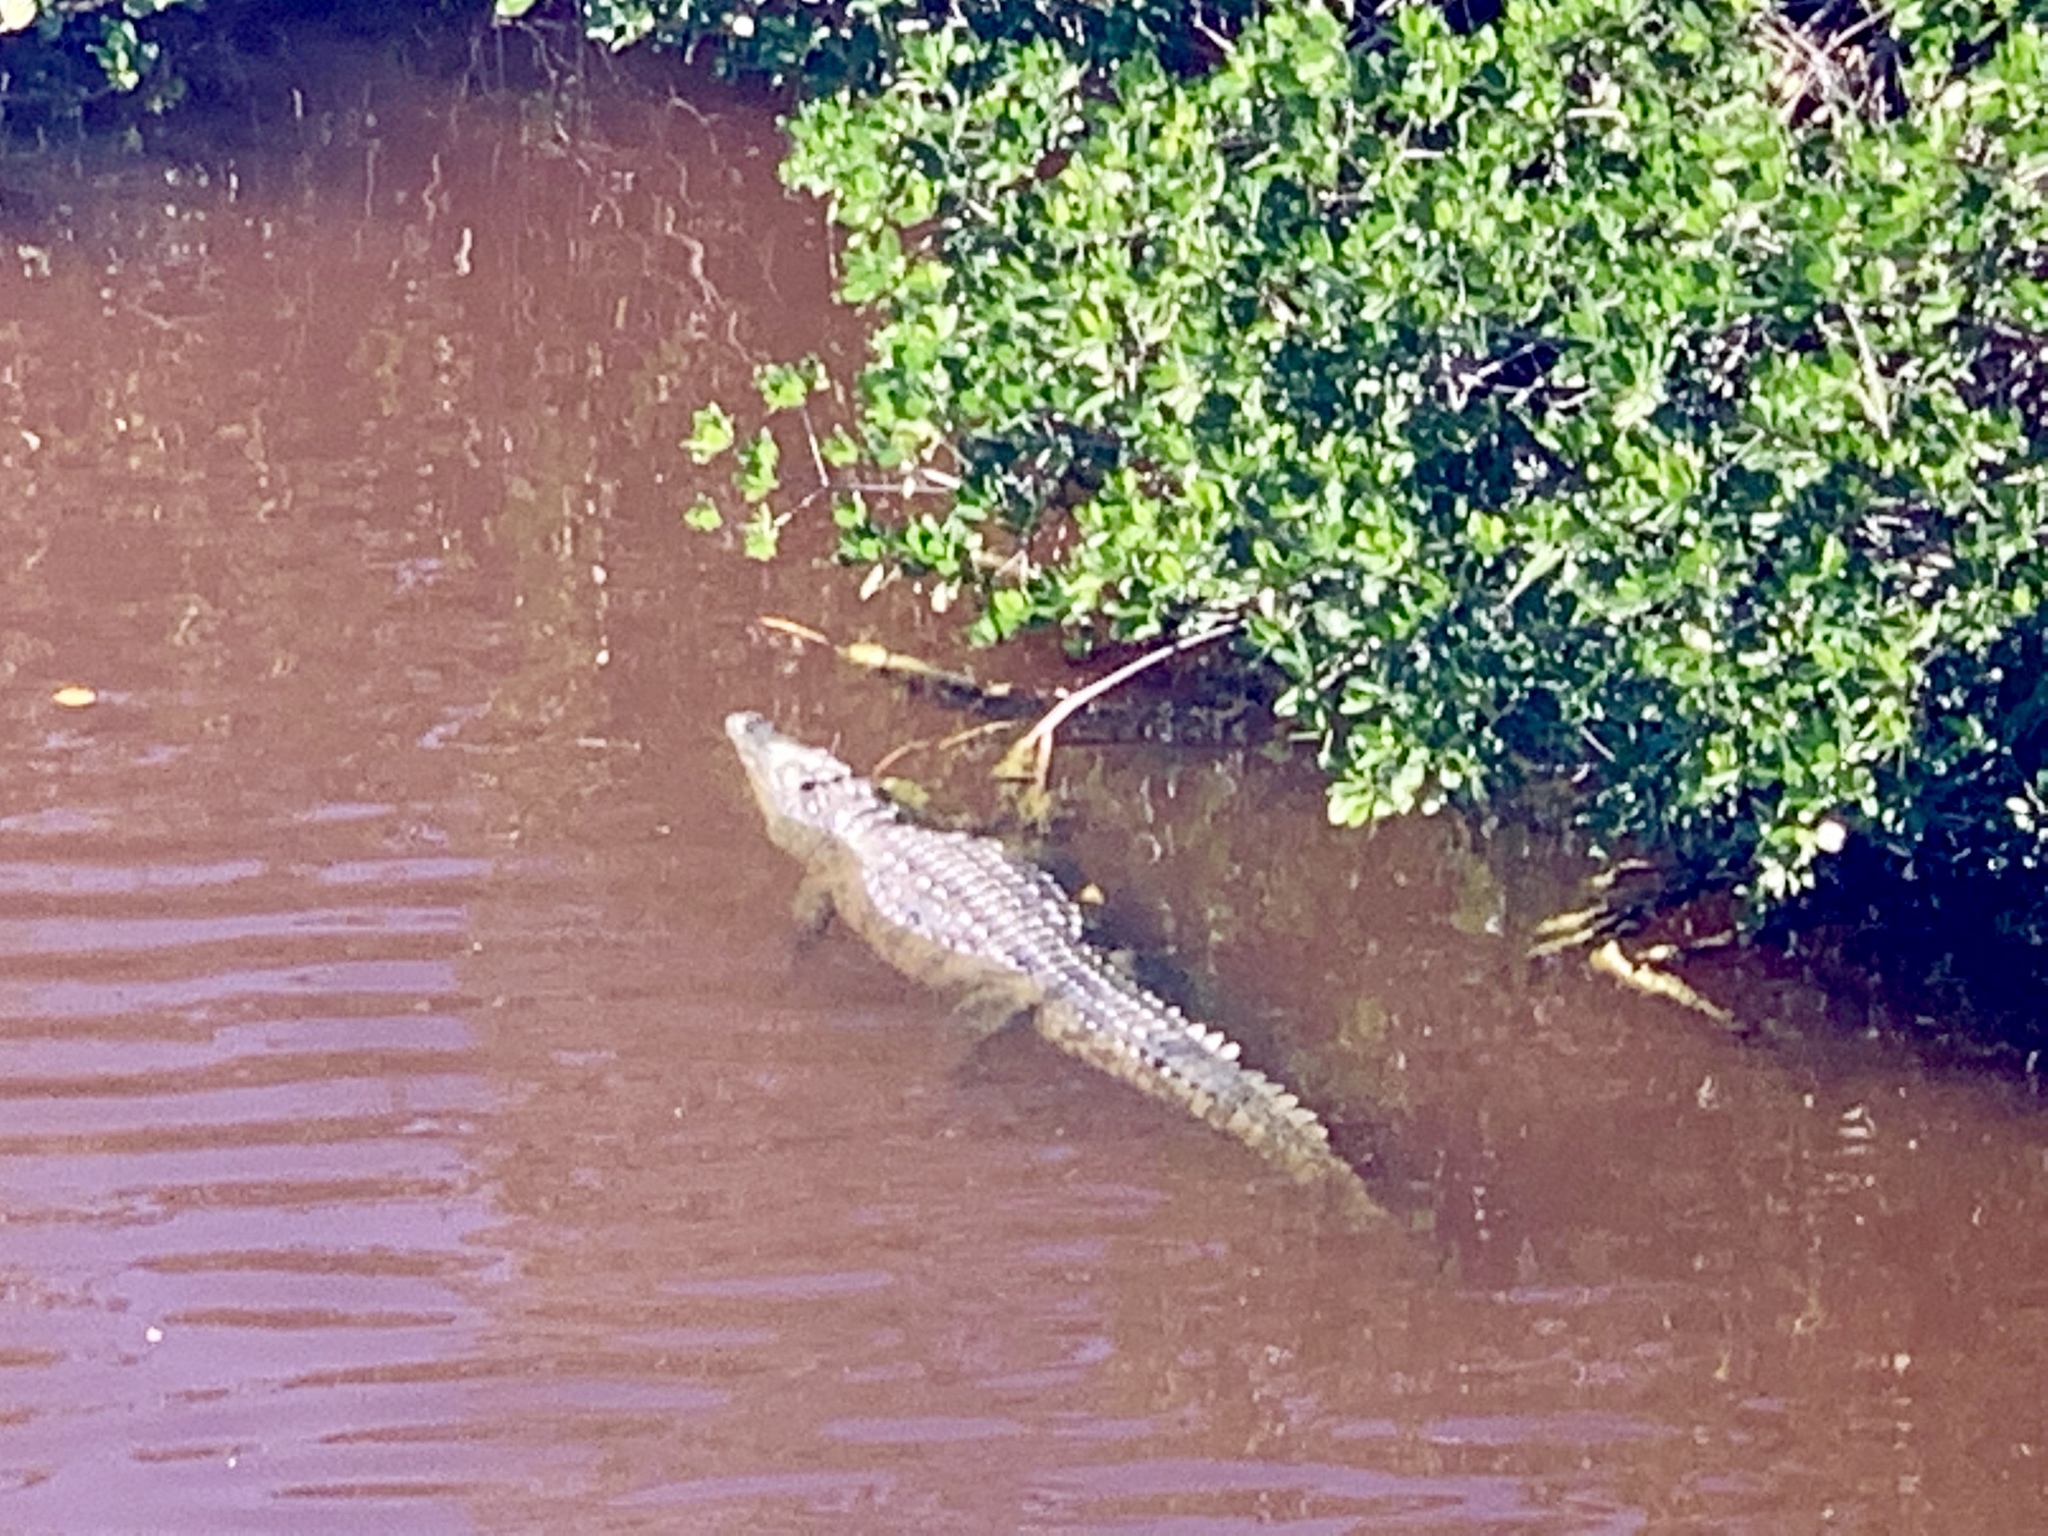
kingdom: Animalia
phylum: Chordata
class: Crocodylia
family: Crocodylidae
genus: Crocodylus
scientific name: Crocodylus acutus
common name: American crocodile
